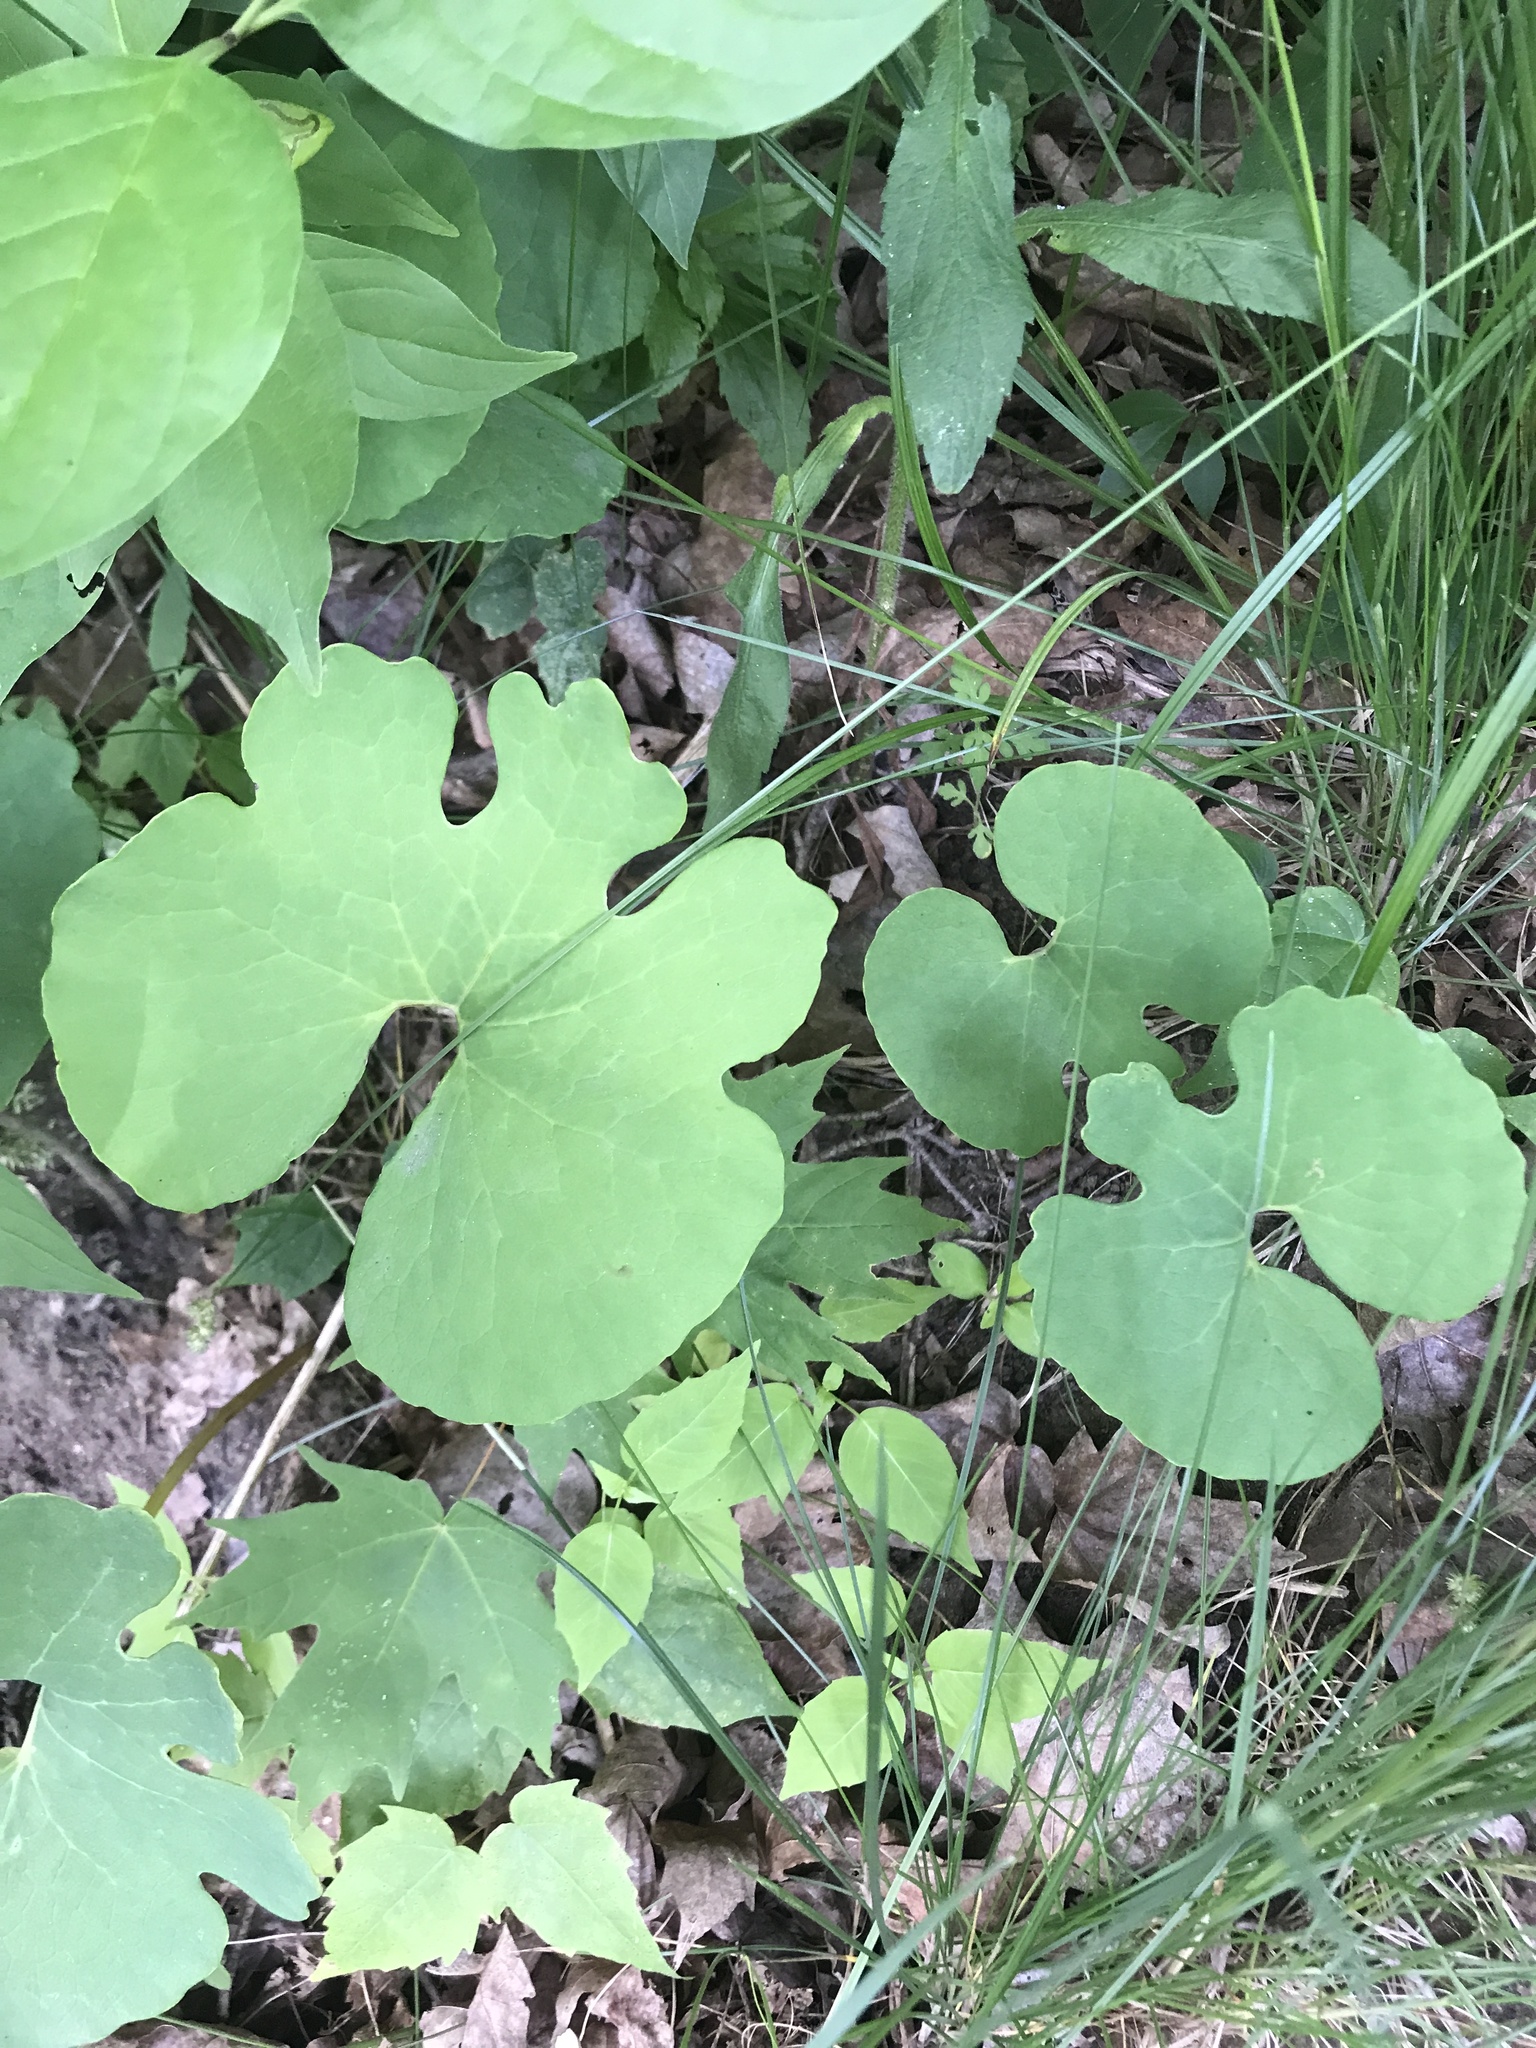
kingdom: Plantae
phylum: Tracheophyta
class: Magnoliopsida
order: Ranunculales
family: Papaveraceae
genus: Sanguinaria
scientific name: Sanguinaria canadensis
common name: Bloodroot
